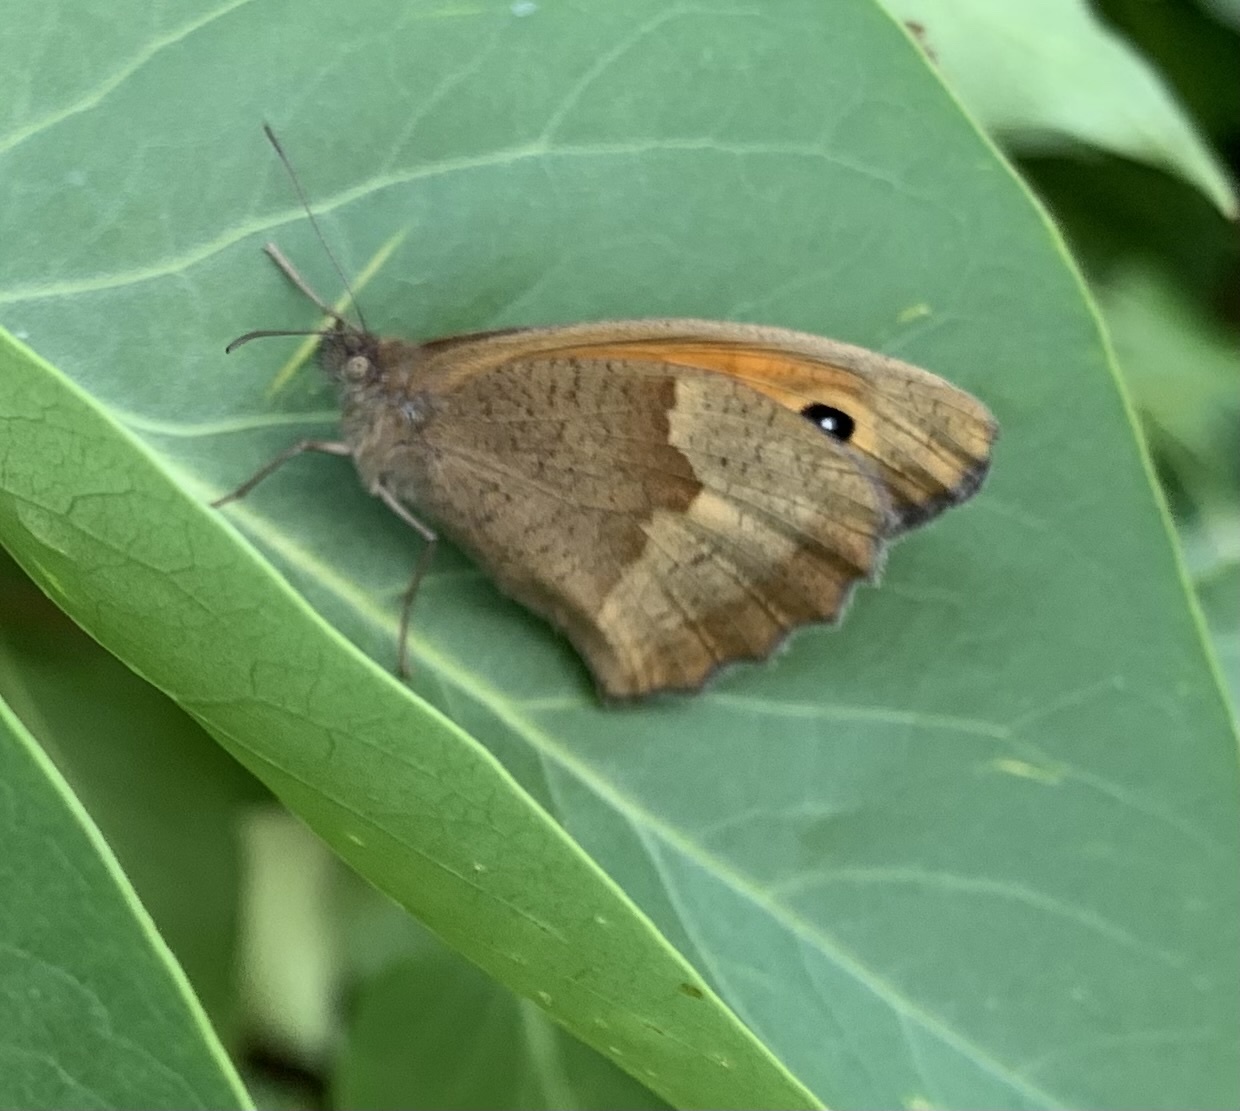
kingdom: Animalia
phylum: Arthropoda
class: Insecta
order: Lepidoptera
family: Nymphalidae
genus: Maniola
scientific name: Maniola jurtina
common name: Meadow brown
